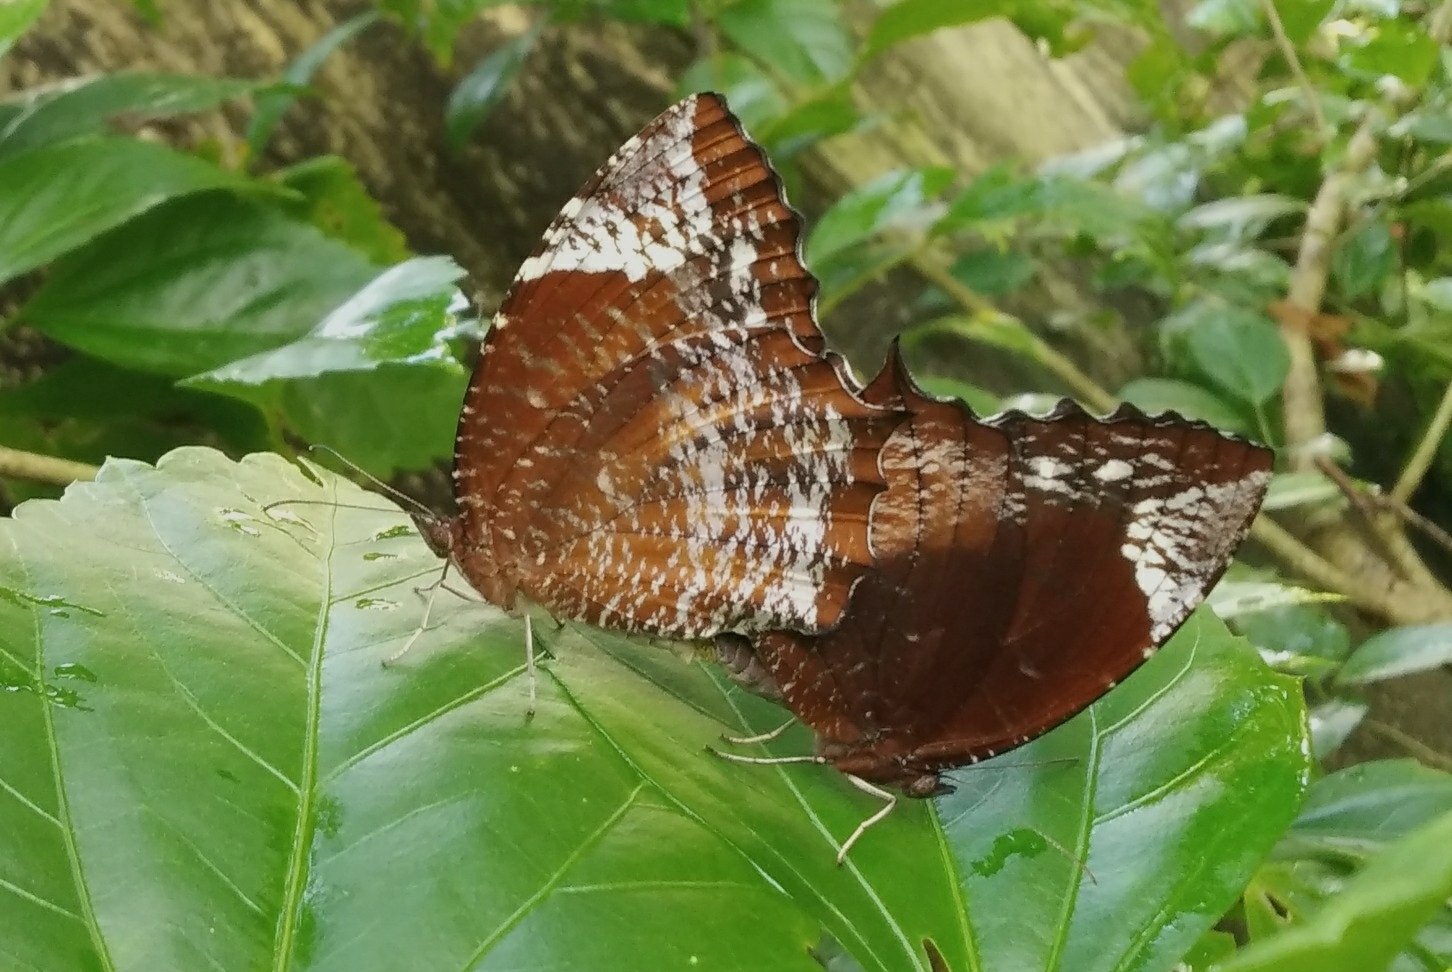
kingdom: Animalia
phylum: Arthropoda
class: Insecta
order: Lepidoptera
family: Nymphalidae
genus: Elymnias
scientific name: Elymnias caudata
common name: Tailed palmfly
